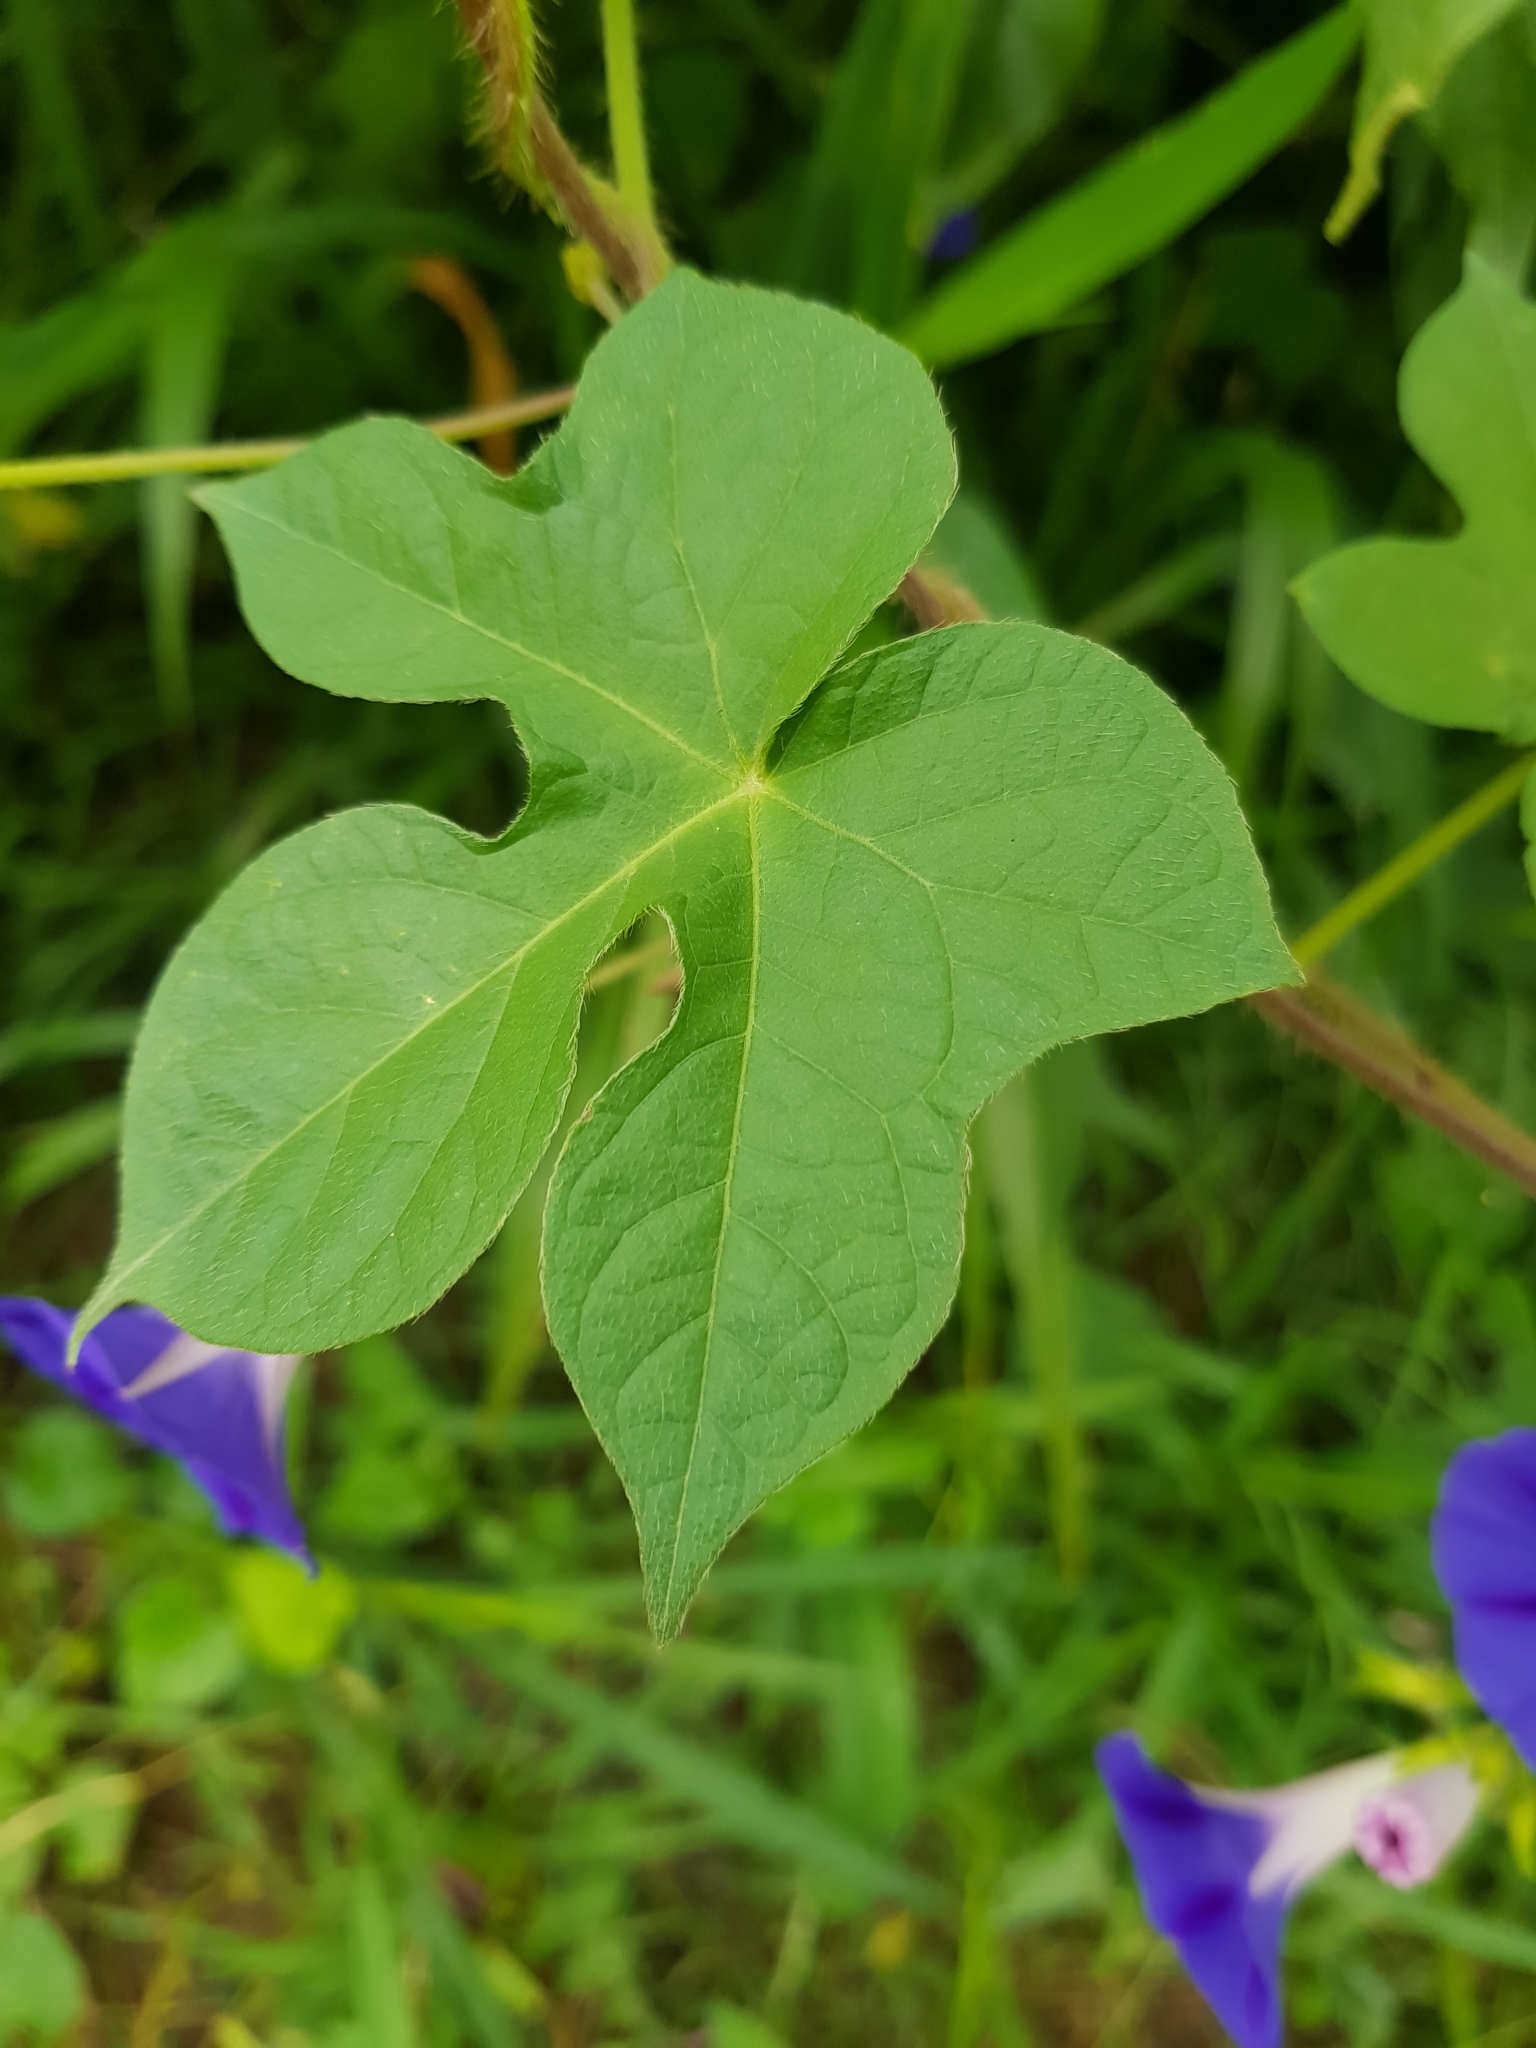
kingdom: Plantae
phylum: Tracheophyta
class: Magnoliopsida
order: Solanales
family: Convolvulaceae
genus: Ipomoea
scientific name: Ipomoea purpurea
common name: Common morning-glory
